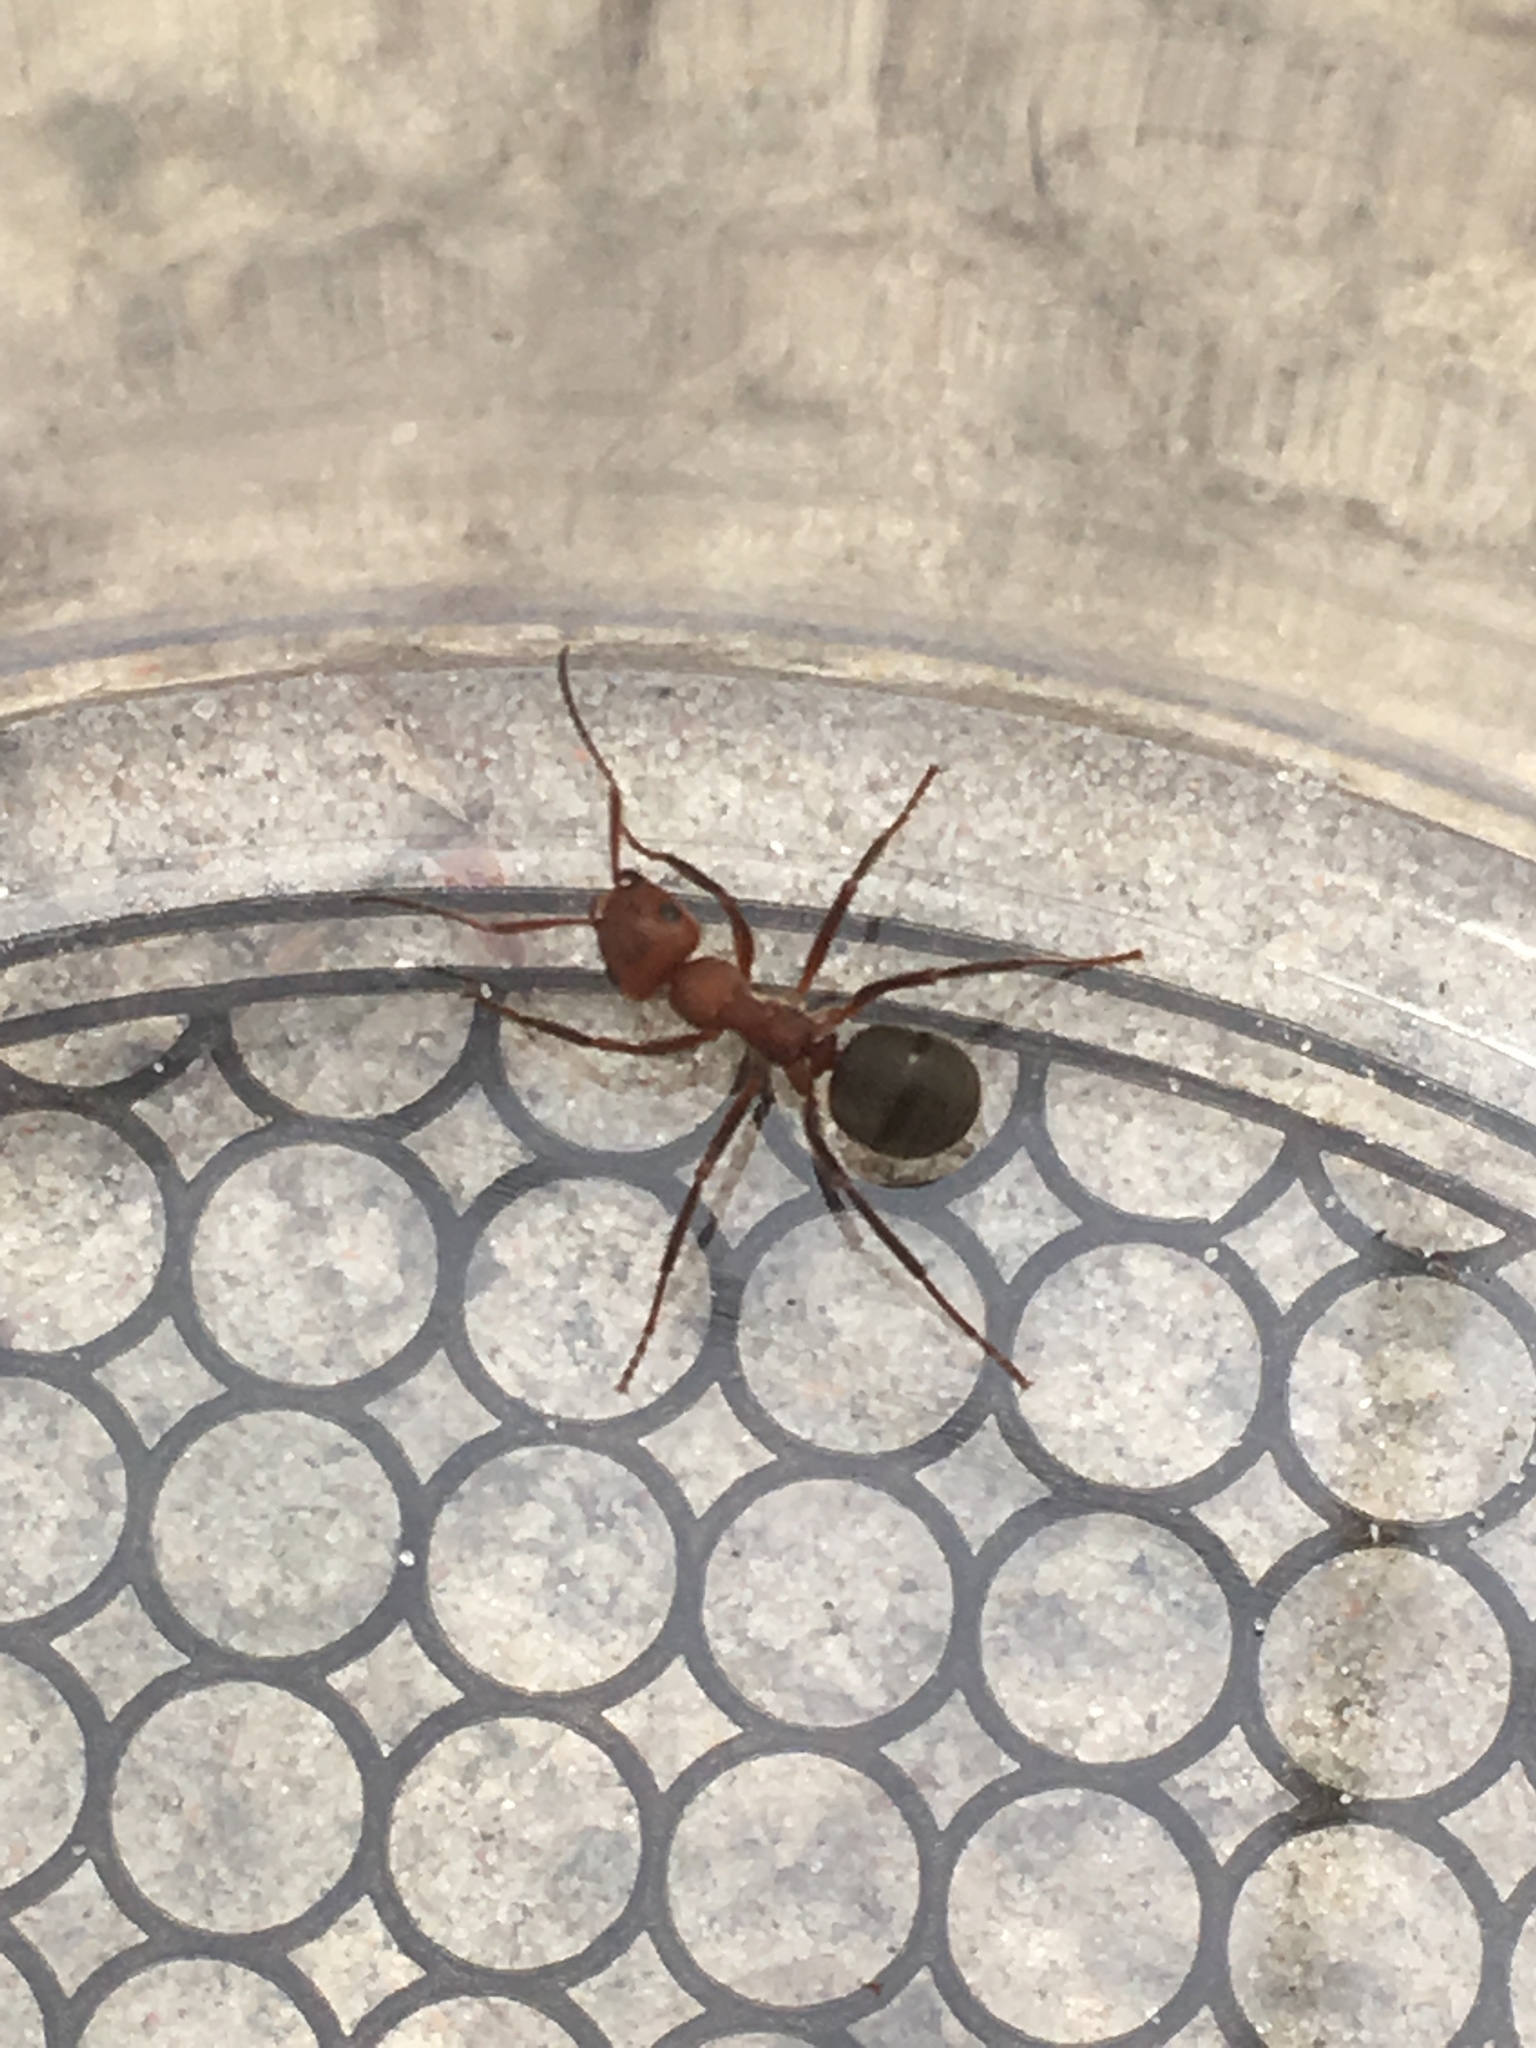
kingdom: Animalia
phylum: Arthropoda
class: Insecta
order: Hymenoptera
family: Formicidae
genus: Formica
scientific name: Formica truncorum
